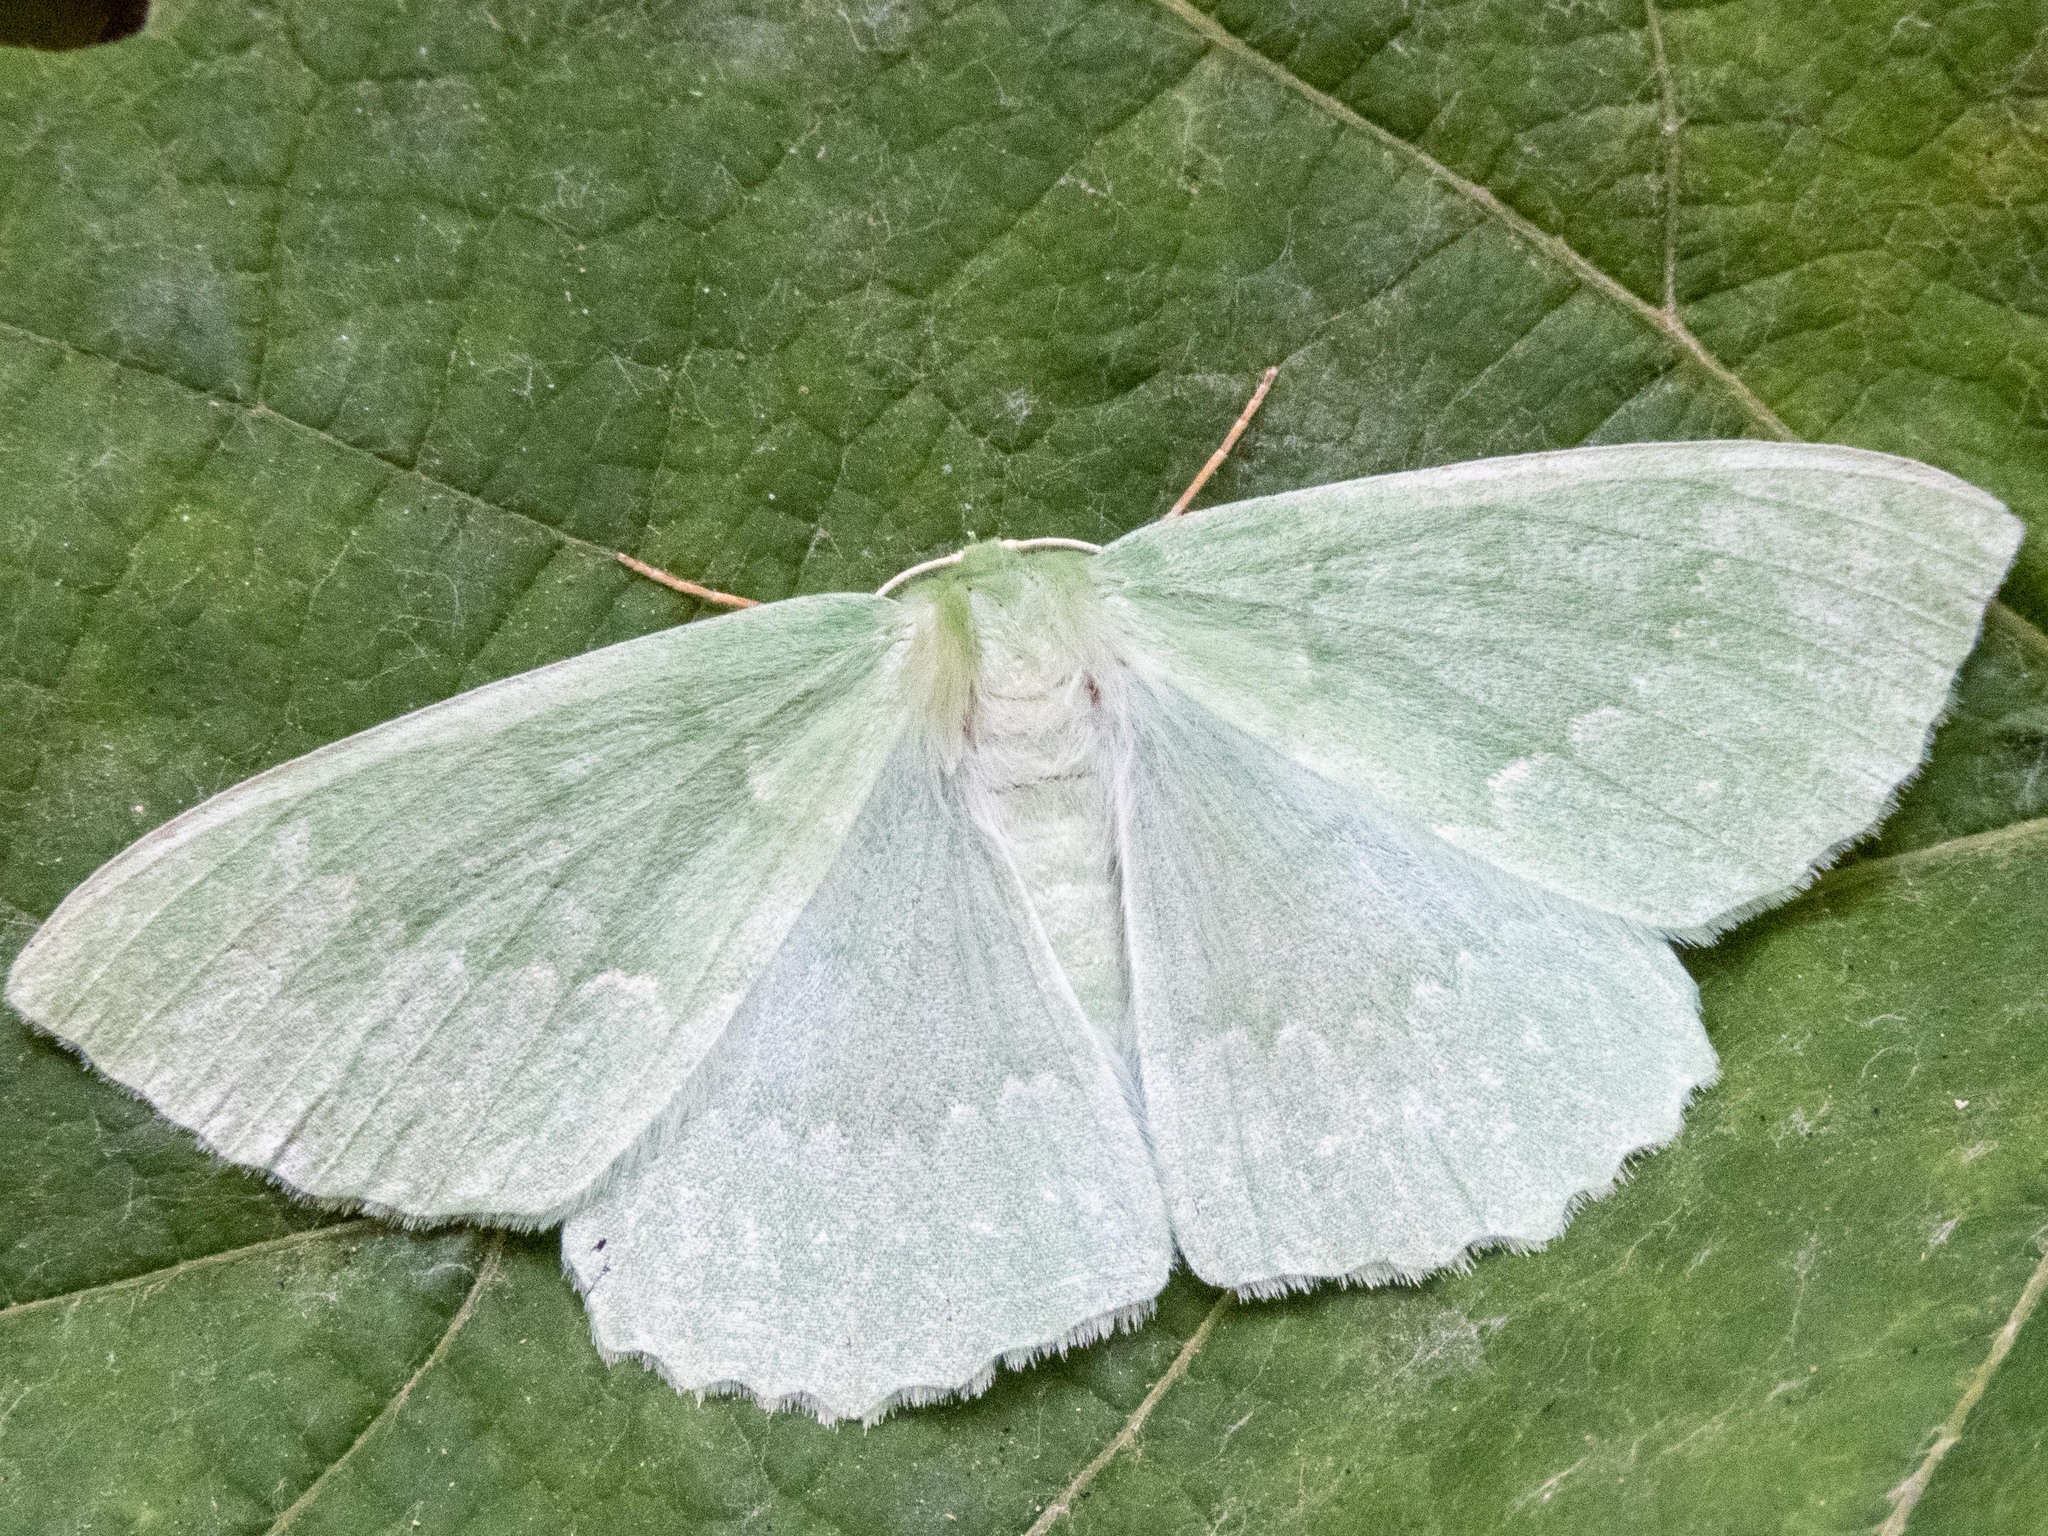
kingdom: Animalia
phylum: Arthropoda
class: Insecta
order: Lepidoptera
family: Geometridae
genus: Geometra
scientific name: Geometra papilionaria
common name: Large emerald
